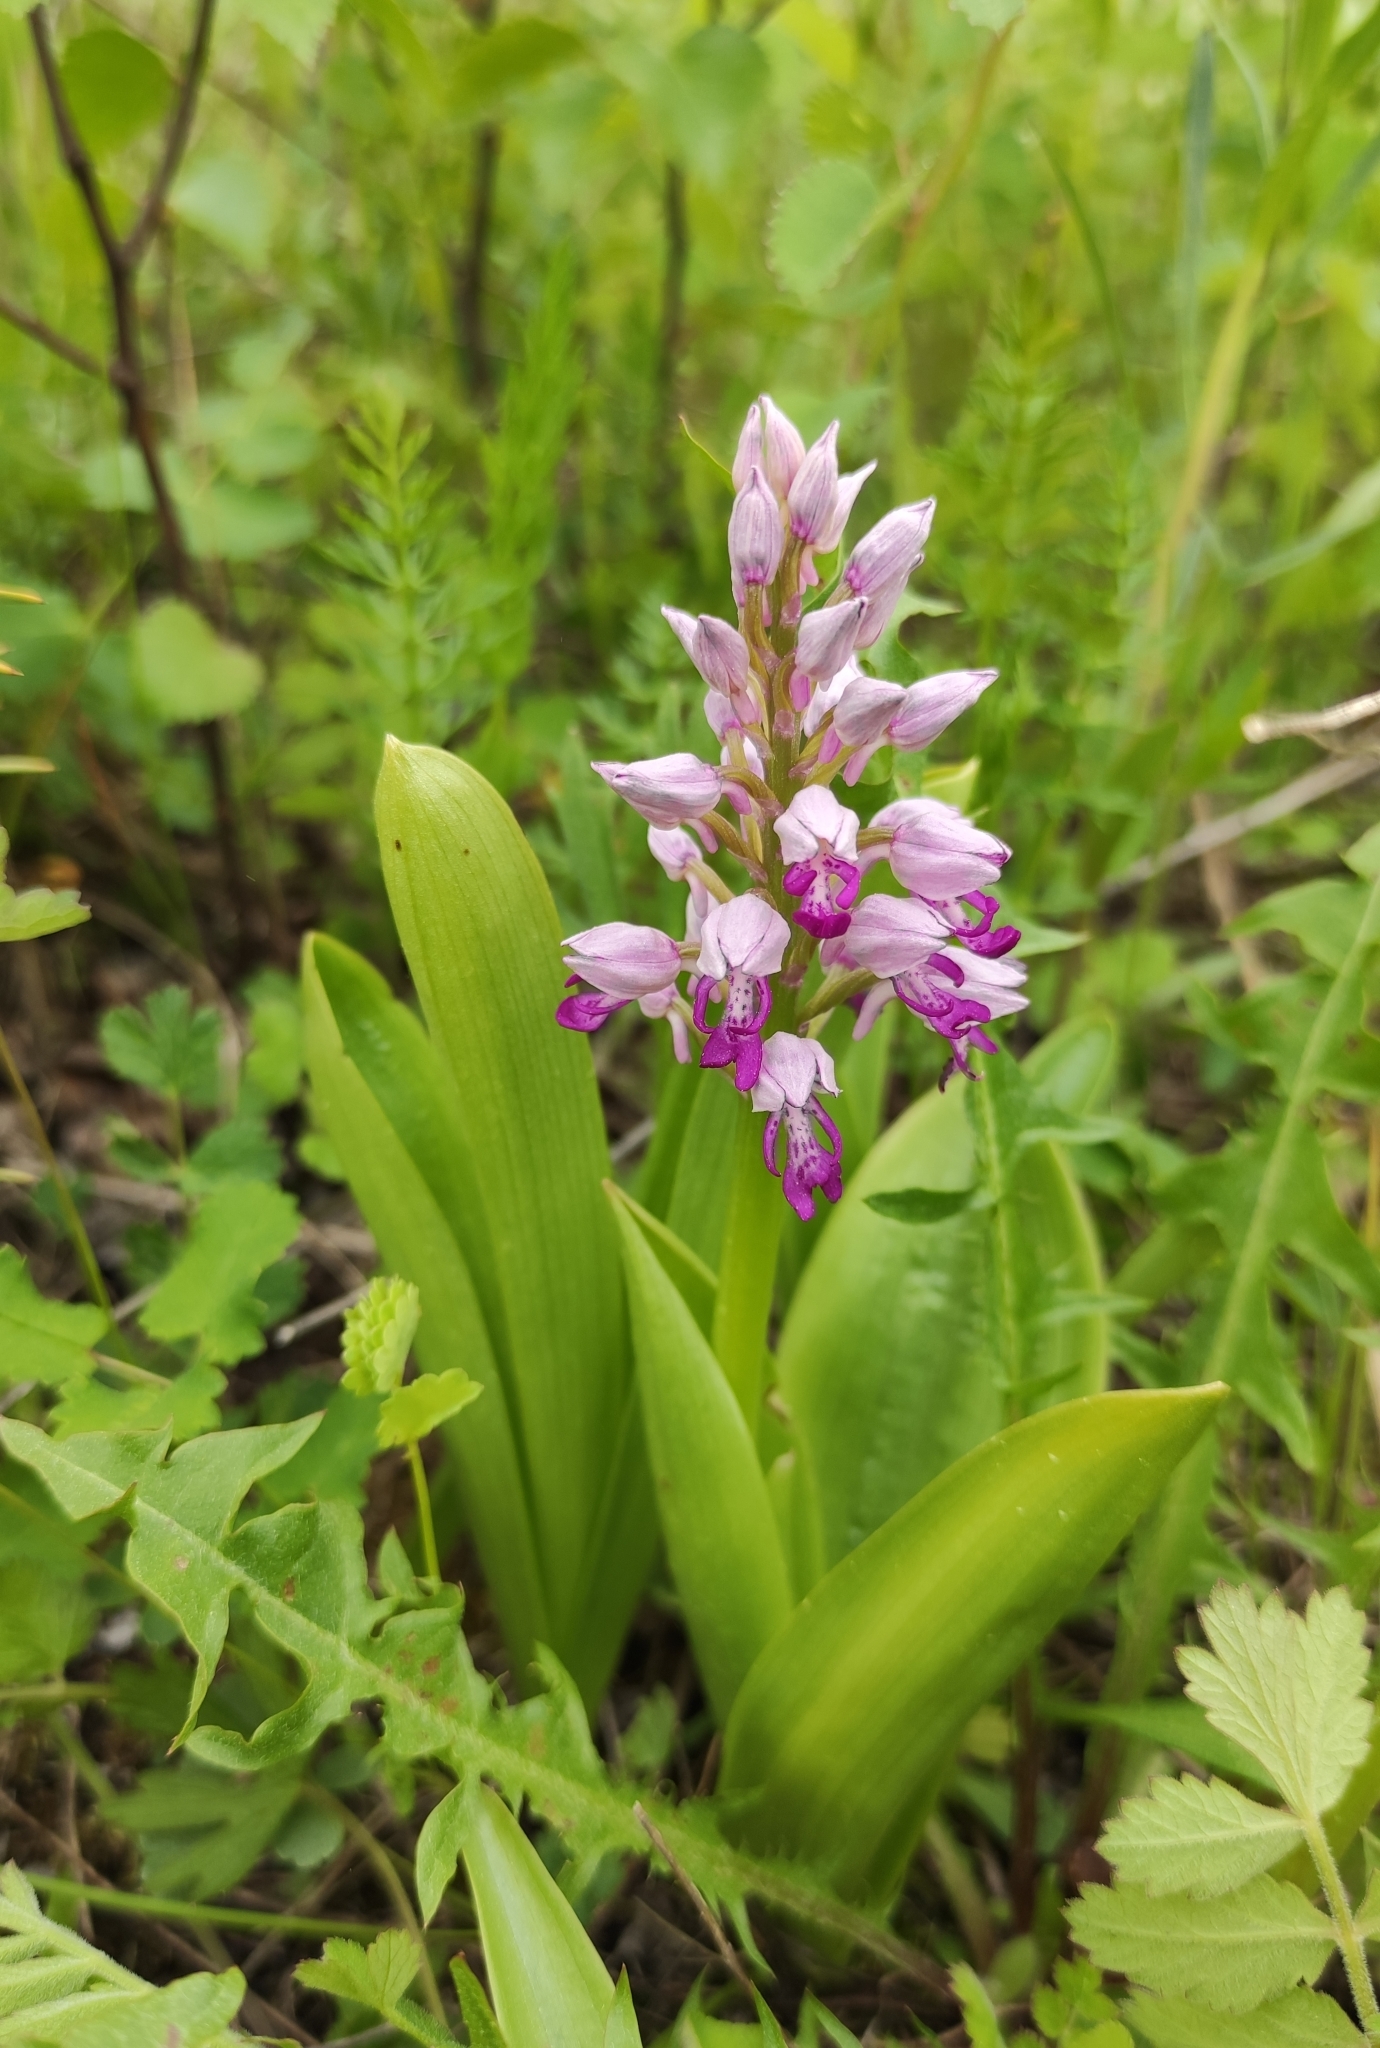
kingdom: Plantae
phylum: Tracheophyta
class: Liliopsida
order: Asparagales
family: Orchidaceae
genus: Orchis
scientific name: Orchis militaris
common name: Military orchid
